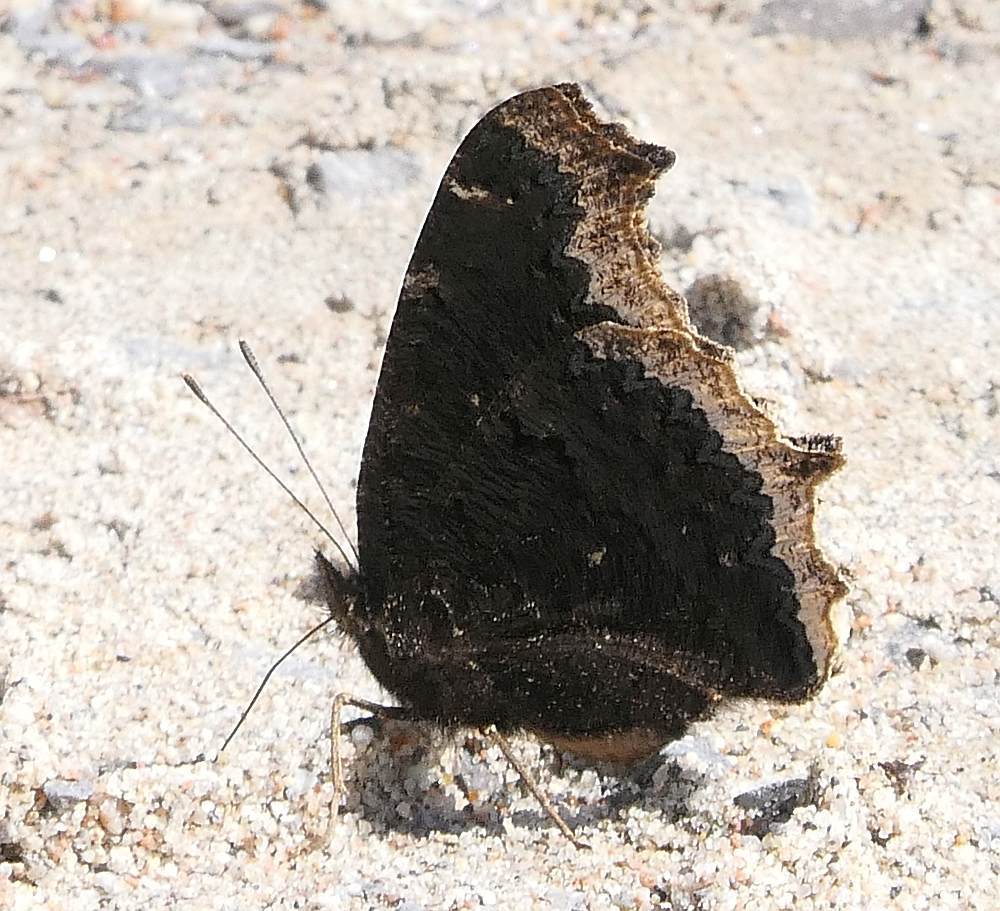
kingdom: Animalia
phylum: Arthropoda
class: Insecta
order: Lepidoptera
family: Nymphalidae
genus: Nymphalis
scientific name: Nymphalis antiopa
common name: Camberwell beauty
